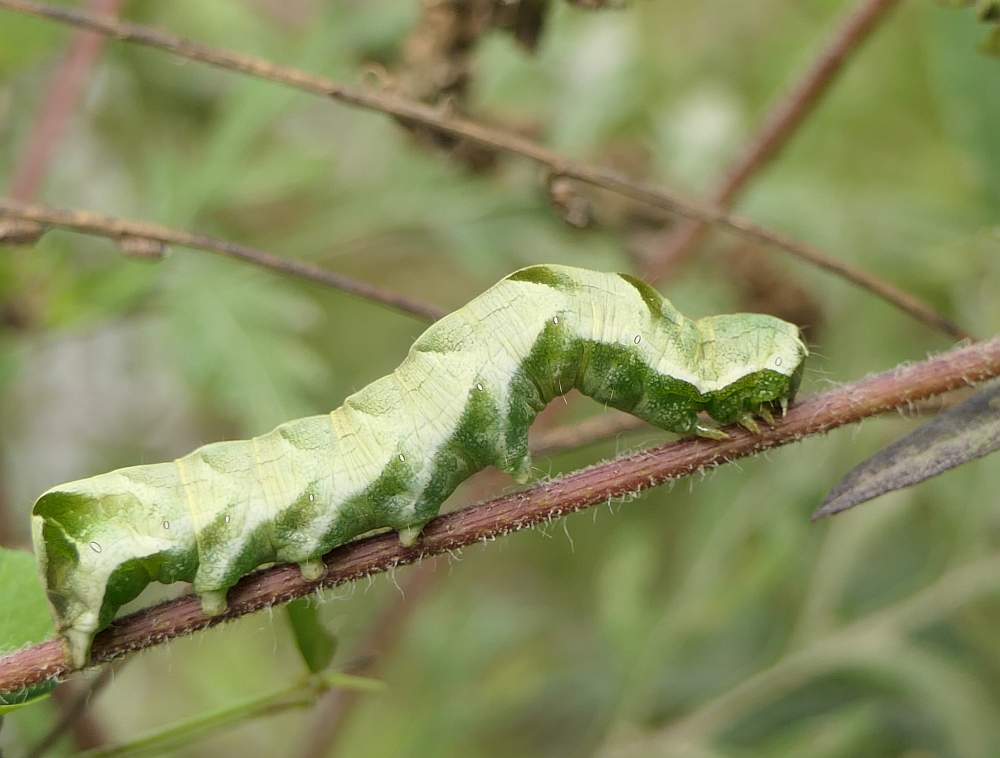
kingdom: Animalia
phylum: Arthropoda
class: Insecta
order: Lepidoptera
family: Noctuidae
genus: Melanchra
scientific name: Melanchra adjuncta
